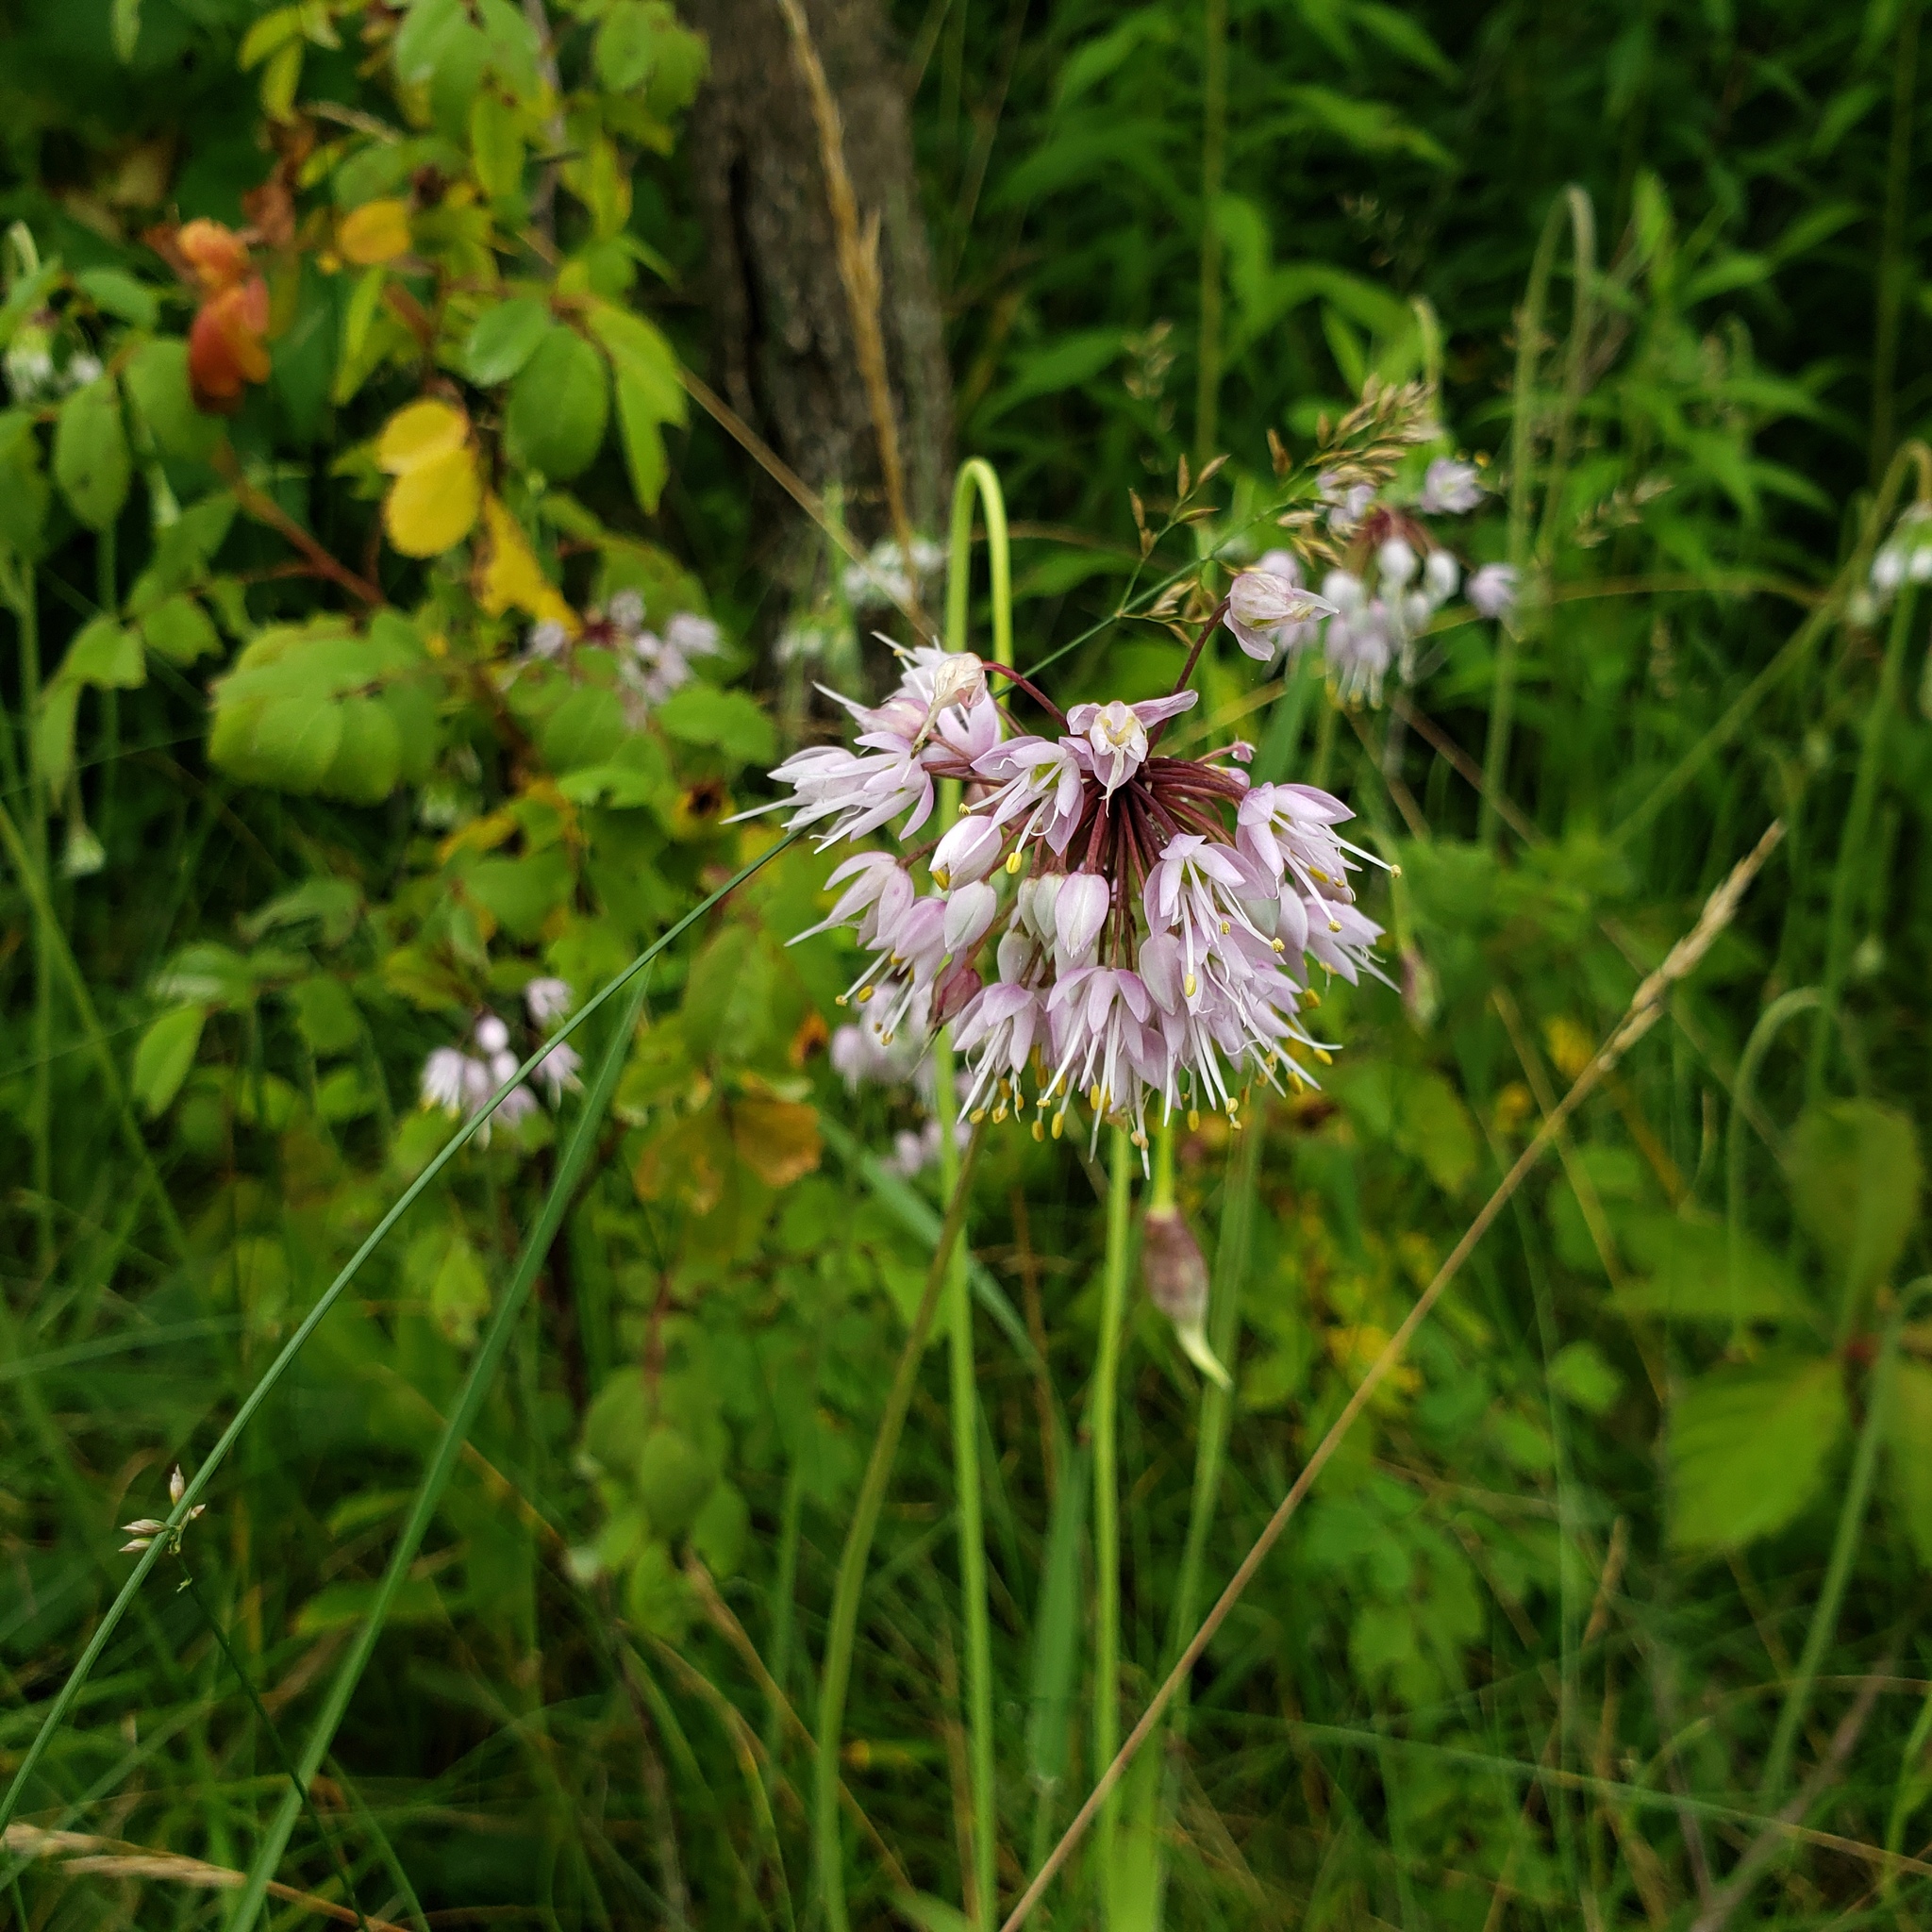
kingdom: Plantae
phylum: Tracheophyta
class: Liliopsida
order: Asparagales
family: Amaryllidaceae
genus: Allium
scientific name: Allium cernuum
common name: Nodding onion
